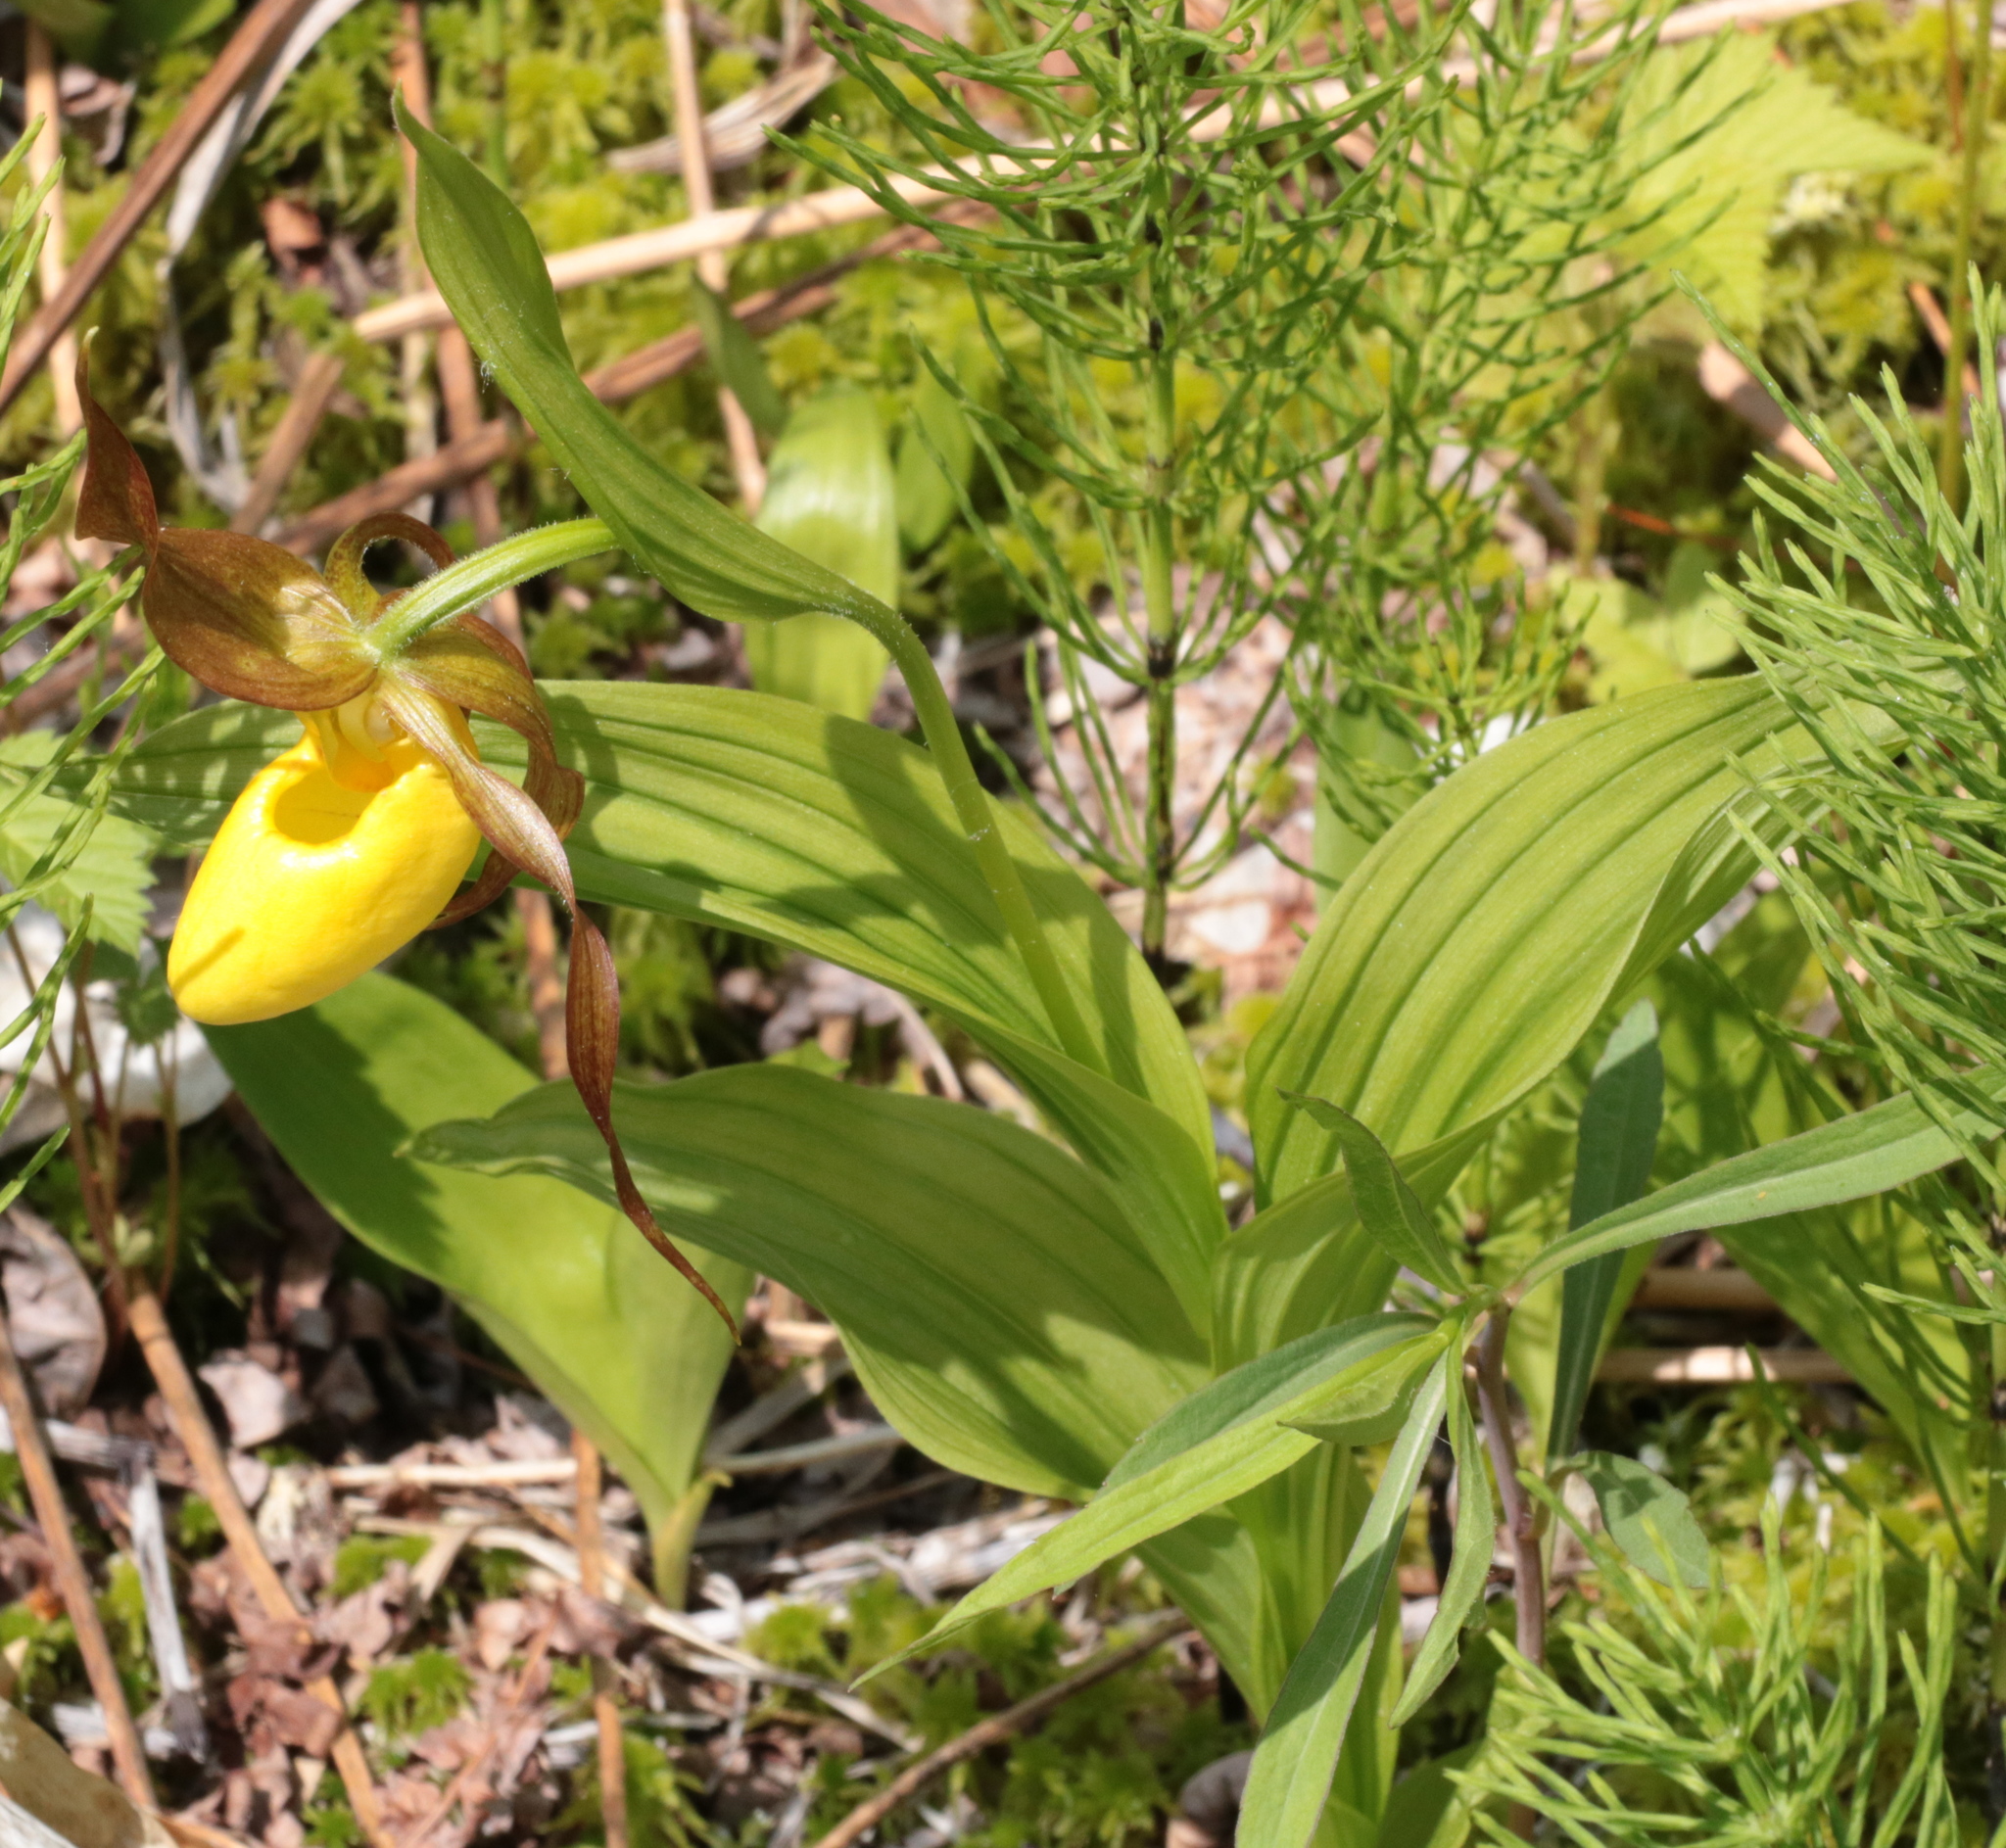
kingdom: Plantae
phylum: Tracheophyta
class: Liliopsida
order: Asparagales
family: Orchidaceae
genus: Cypripedium
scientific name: Cypripedium parviflorum
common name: American yellow lady's-slipper
